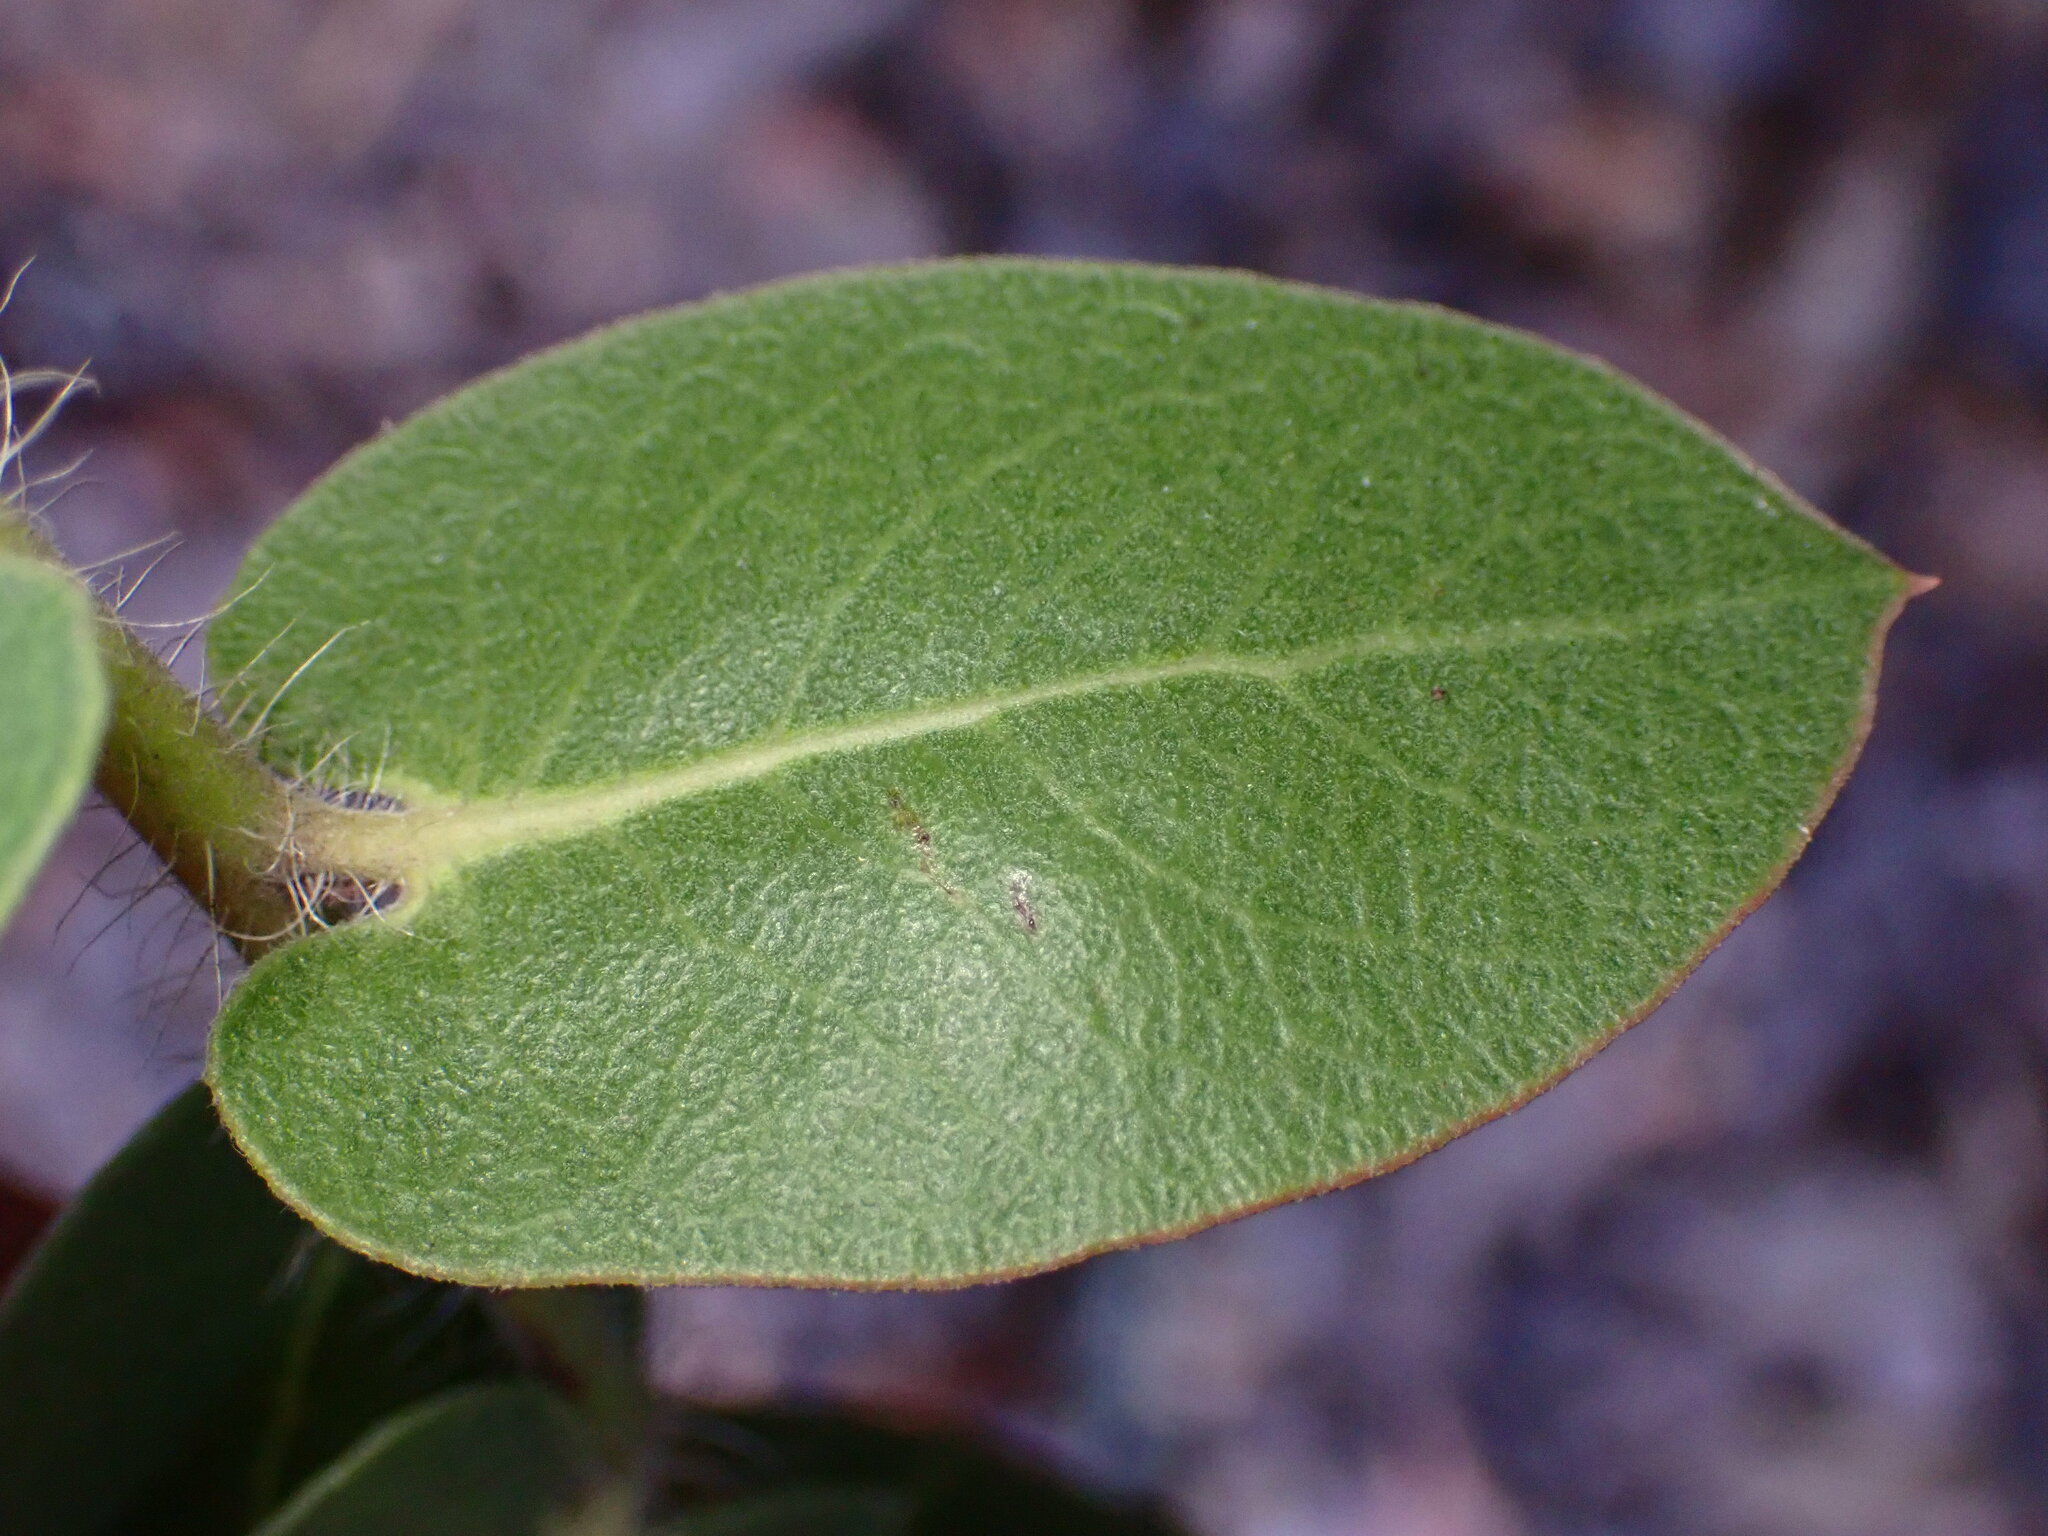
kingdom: Plantae
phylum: Tracheophyta
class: Magnoliopsida
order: Ericales
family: Ericaceae
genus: Arctostaphylos
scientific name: Arctostaphylos pechoensis
